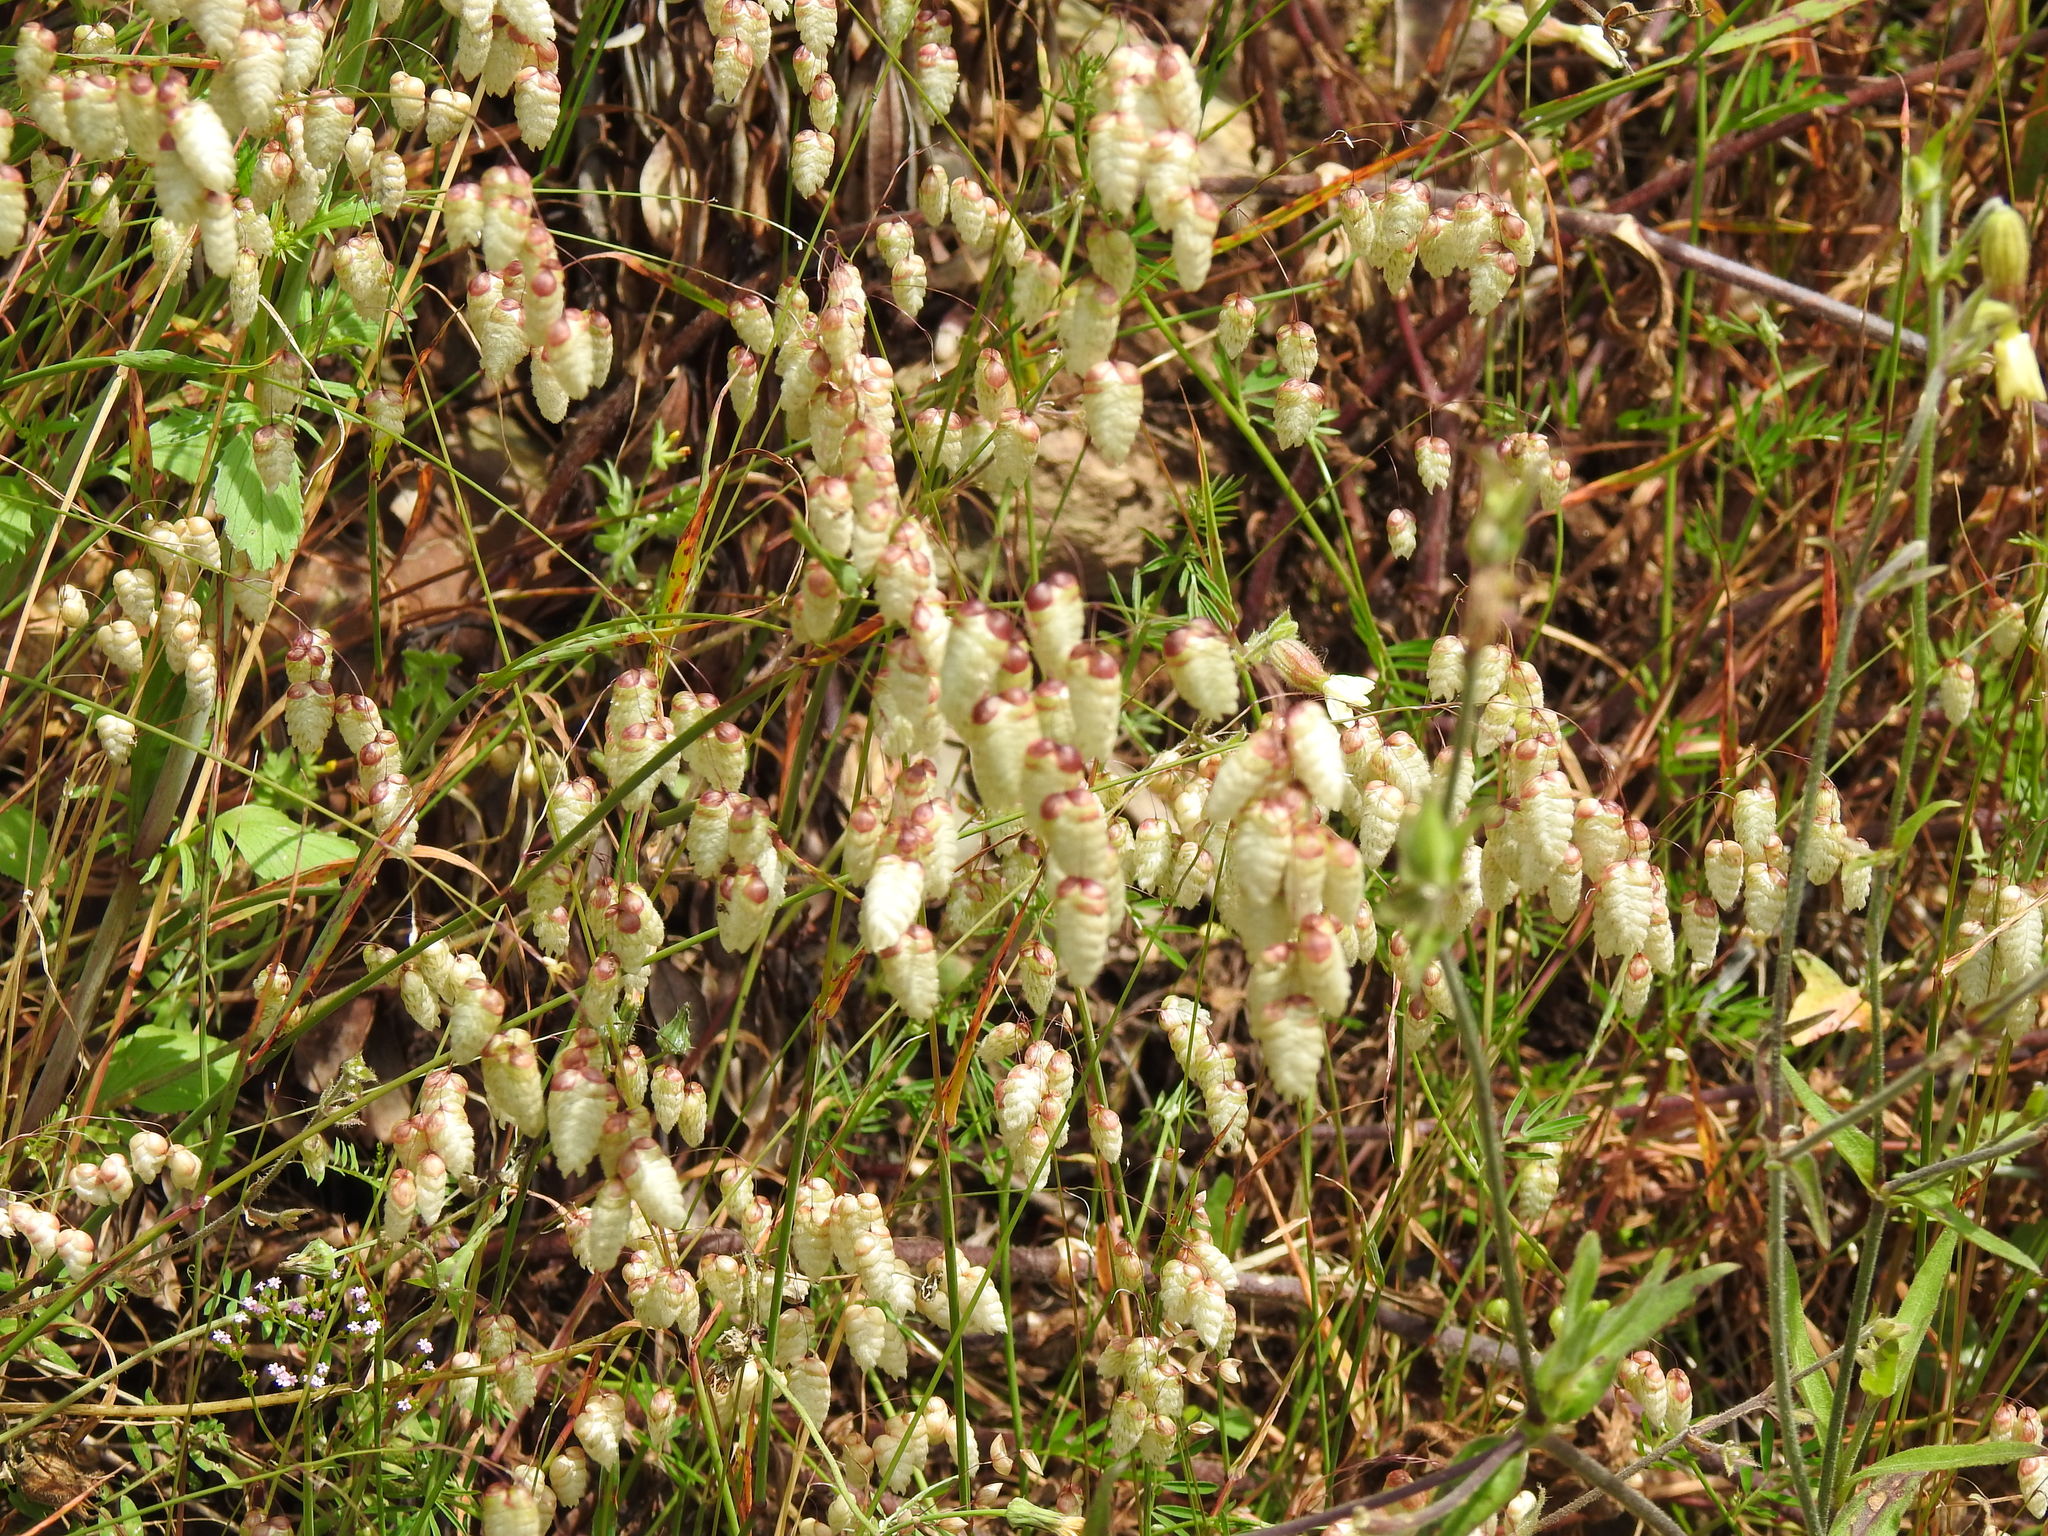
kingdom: Plantae
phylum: Tracheophyta
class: Liliopsida
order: Poales
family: Poaceae
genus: Briza
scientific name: Briza maxima
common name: Big quakinggrass
